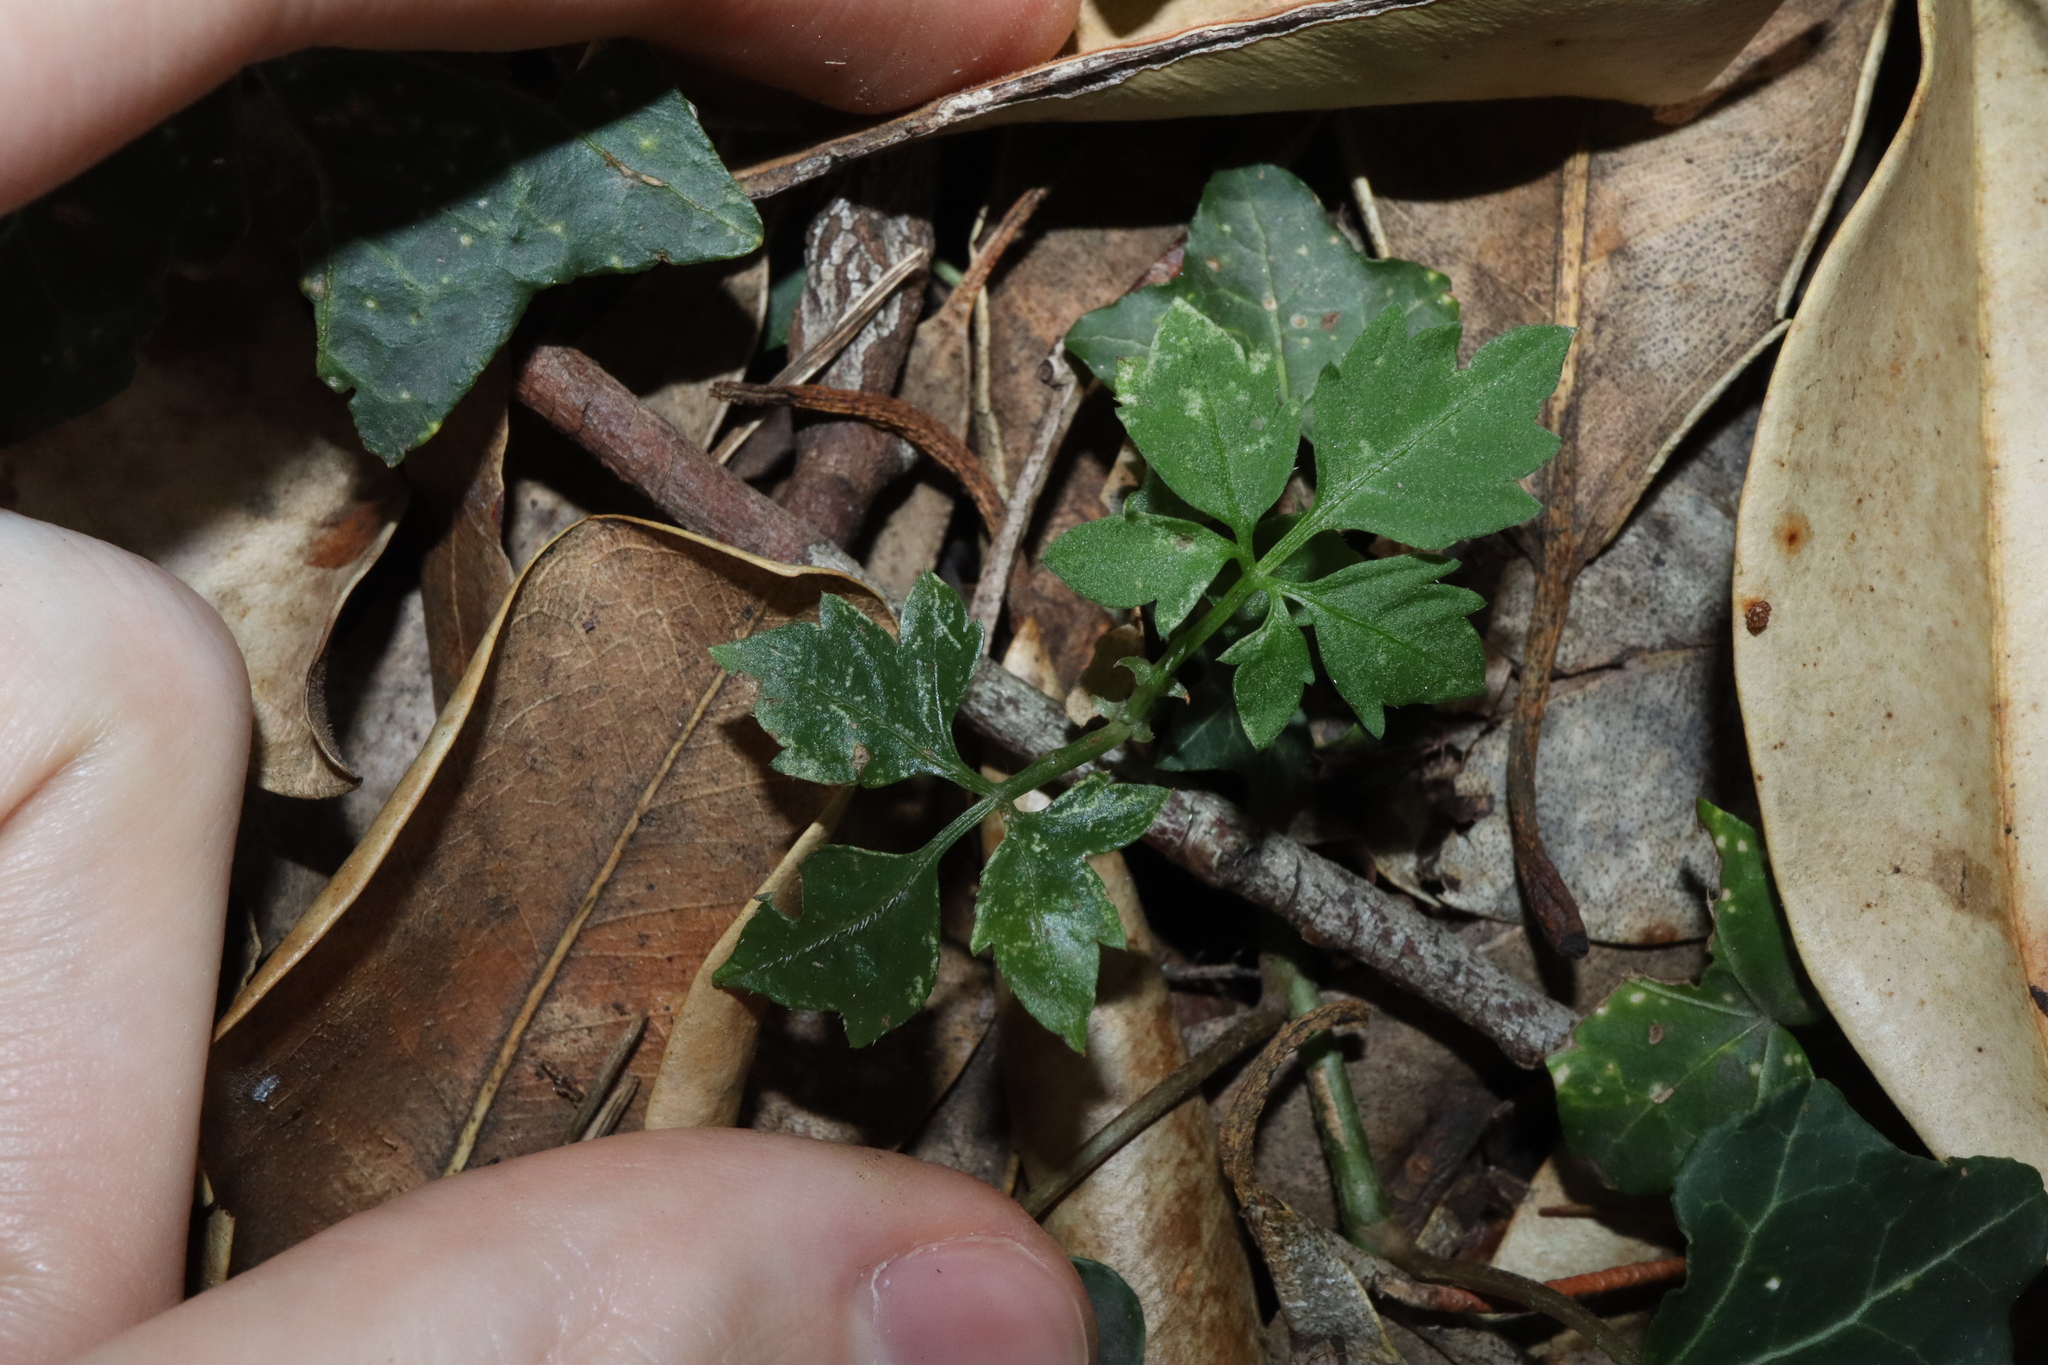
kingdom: Plantae
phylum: Tracheophyta
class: Magnoliopsida
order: Vitales
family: Vitaceae
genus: Causonis
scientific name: Causonis clematidea
